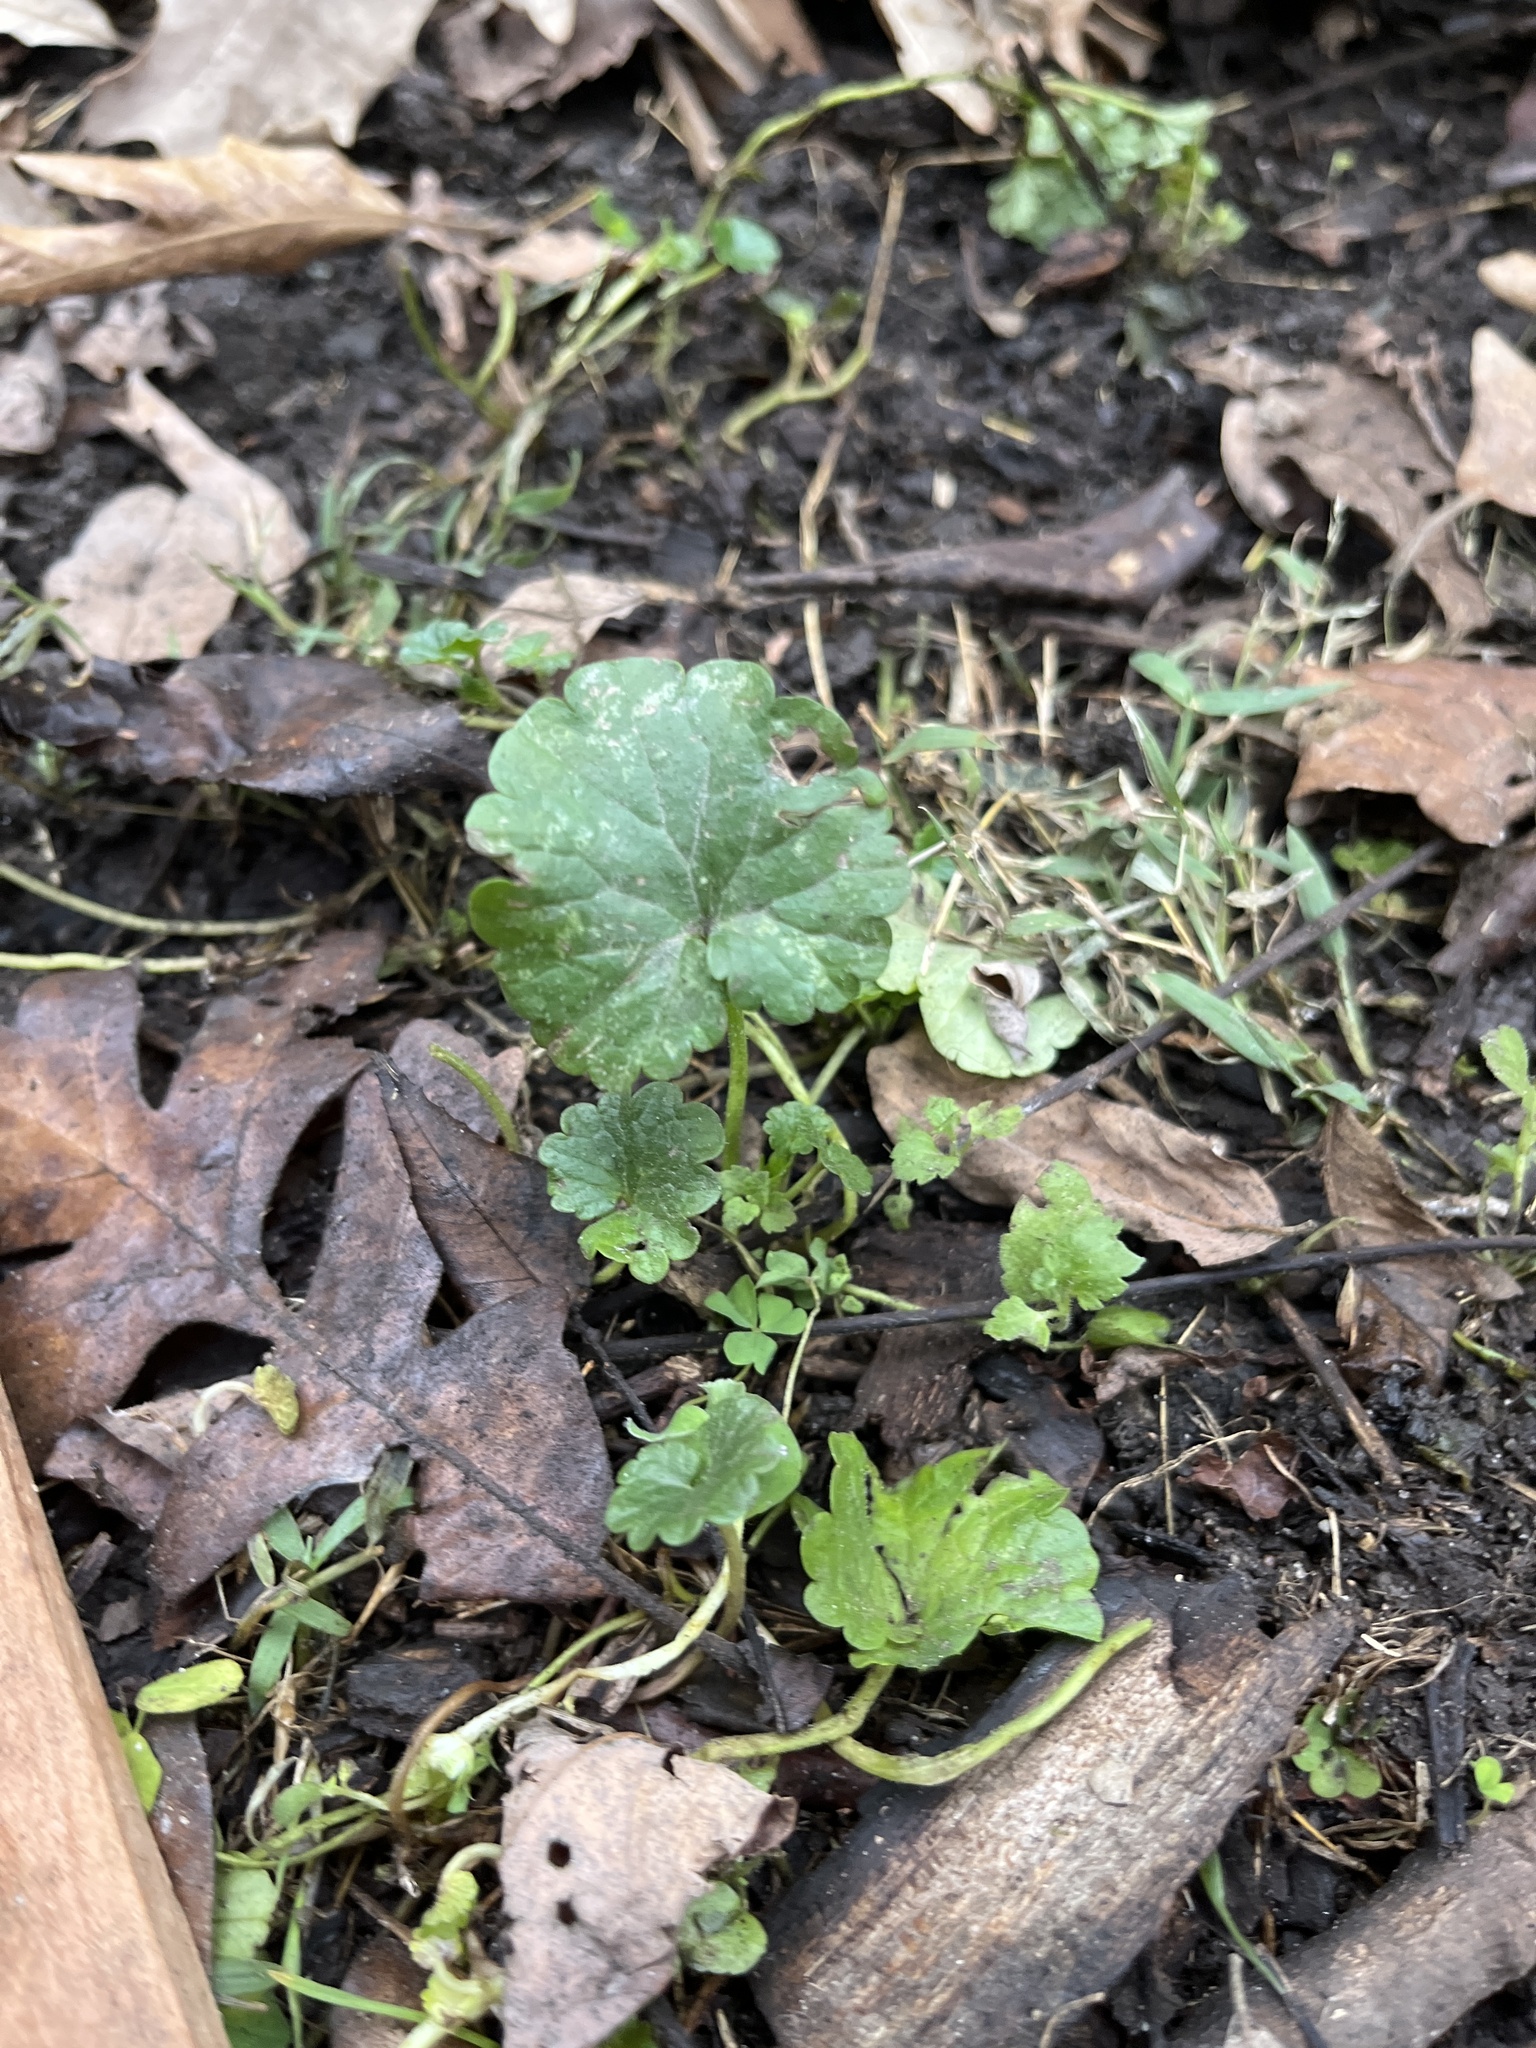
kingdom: Plantae
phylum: Tracheophyta
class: Magnoliopsida
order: Lamiales
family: Lamiaceae
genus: Glechoma
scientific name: Glechoma hederacea
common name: Ground ivy
